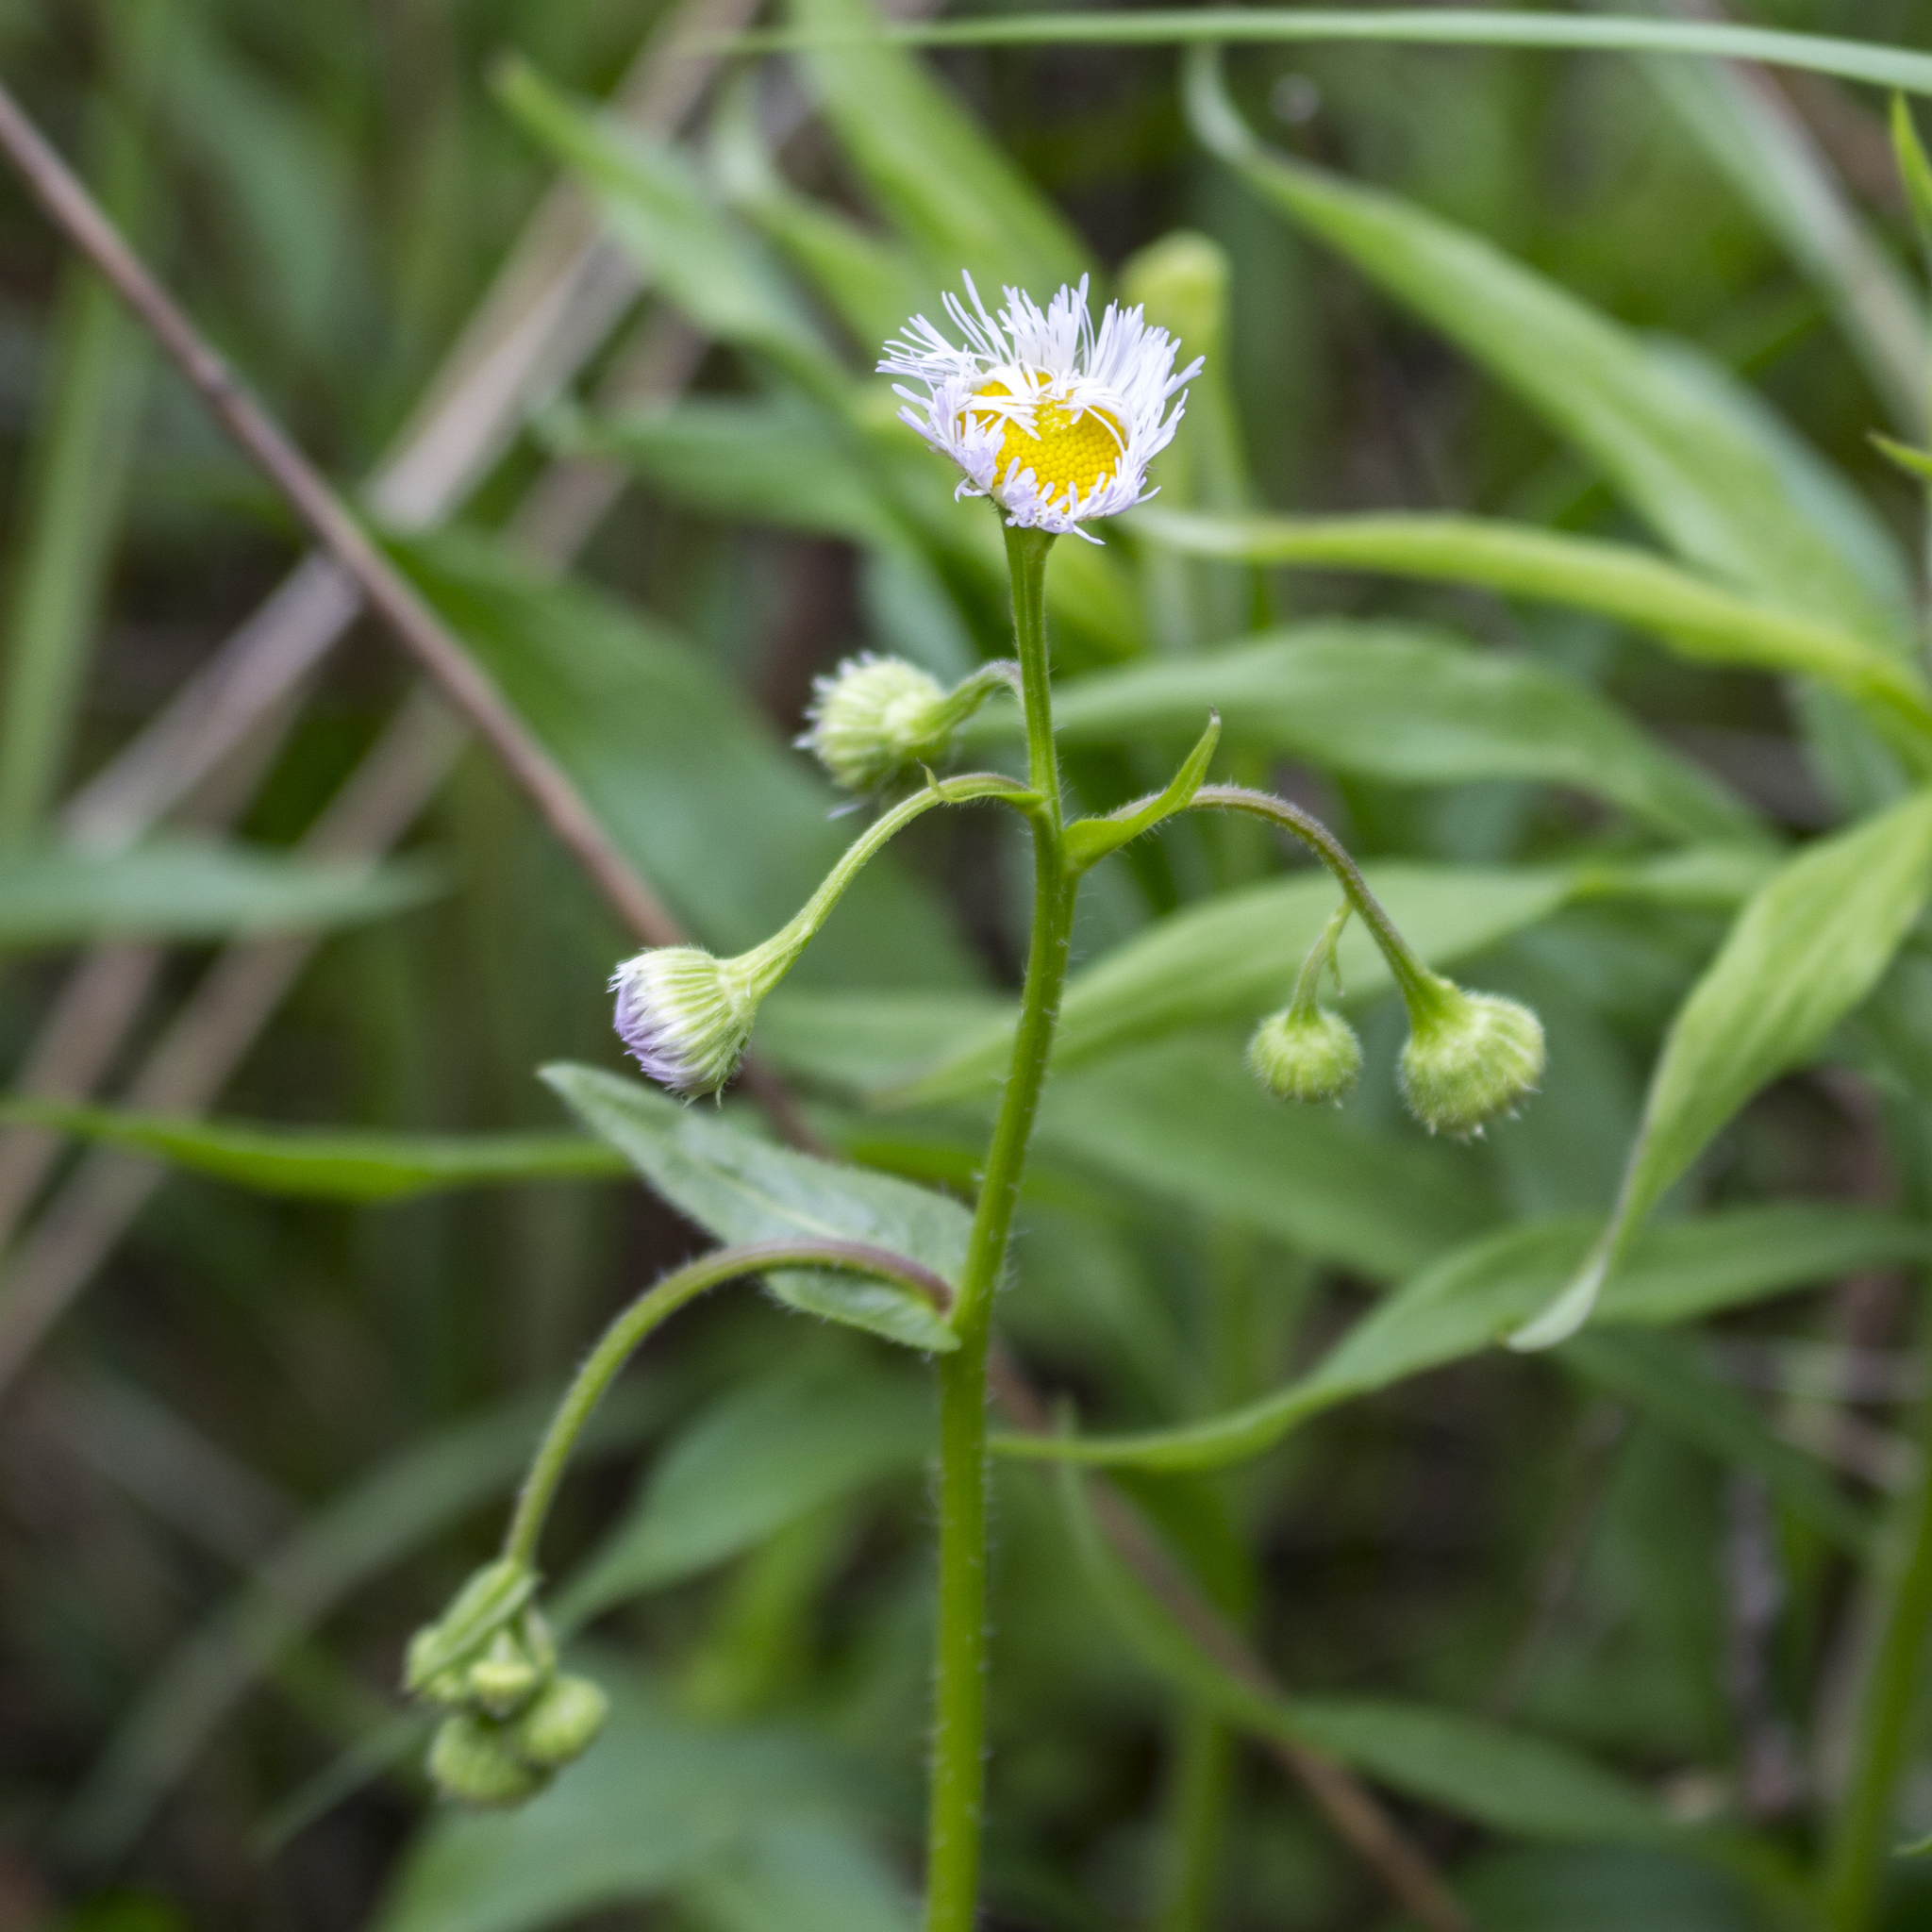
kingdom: Plantae
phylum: Tracheophyta
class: Magnoliopsida
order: Asterales
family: Asteraceae
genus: Erigeron
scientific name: Erigeron philadelphicus
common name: Robin's-plantain
